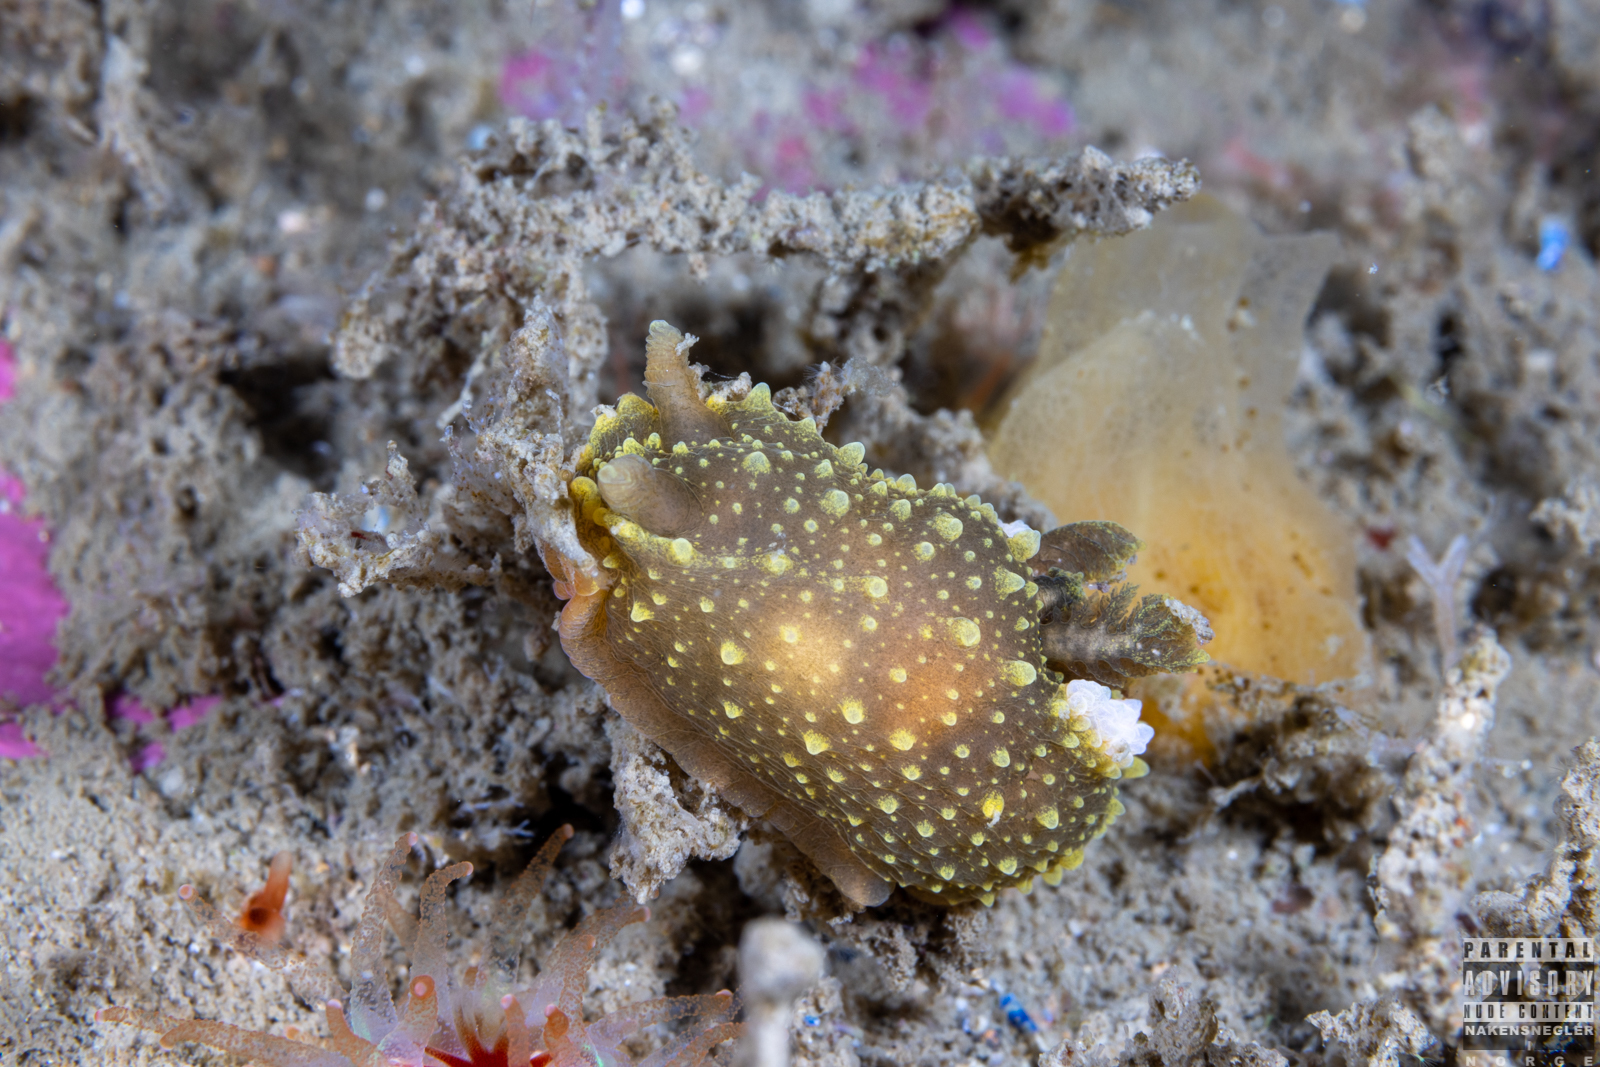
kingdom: Animalia
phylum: Mollusca
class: Gastropoda
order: Nudibranchia
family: Polyceridae
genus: Palio
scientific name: Palio dubia
